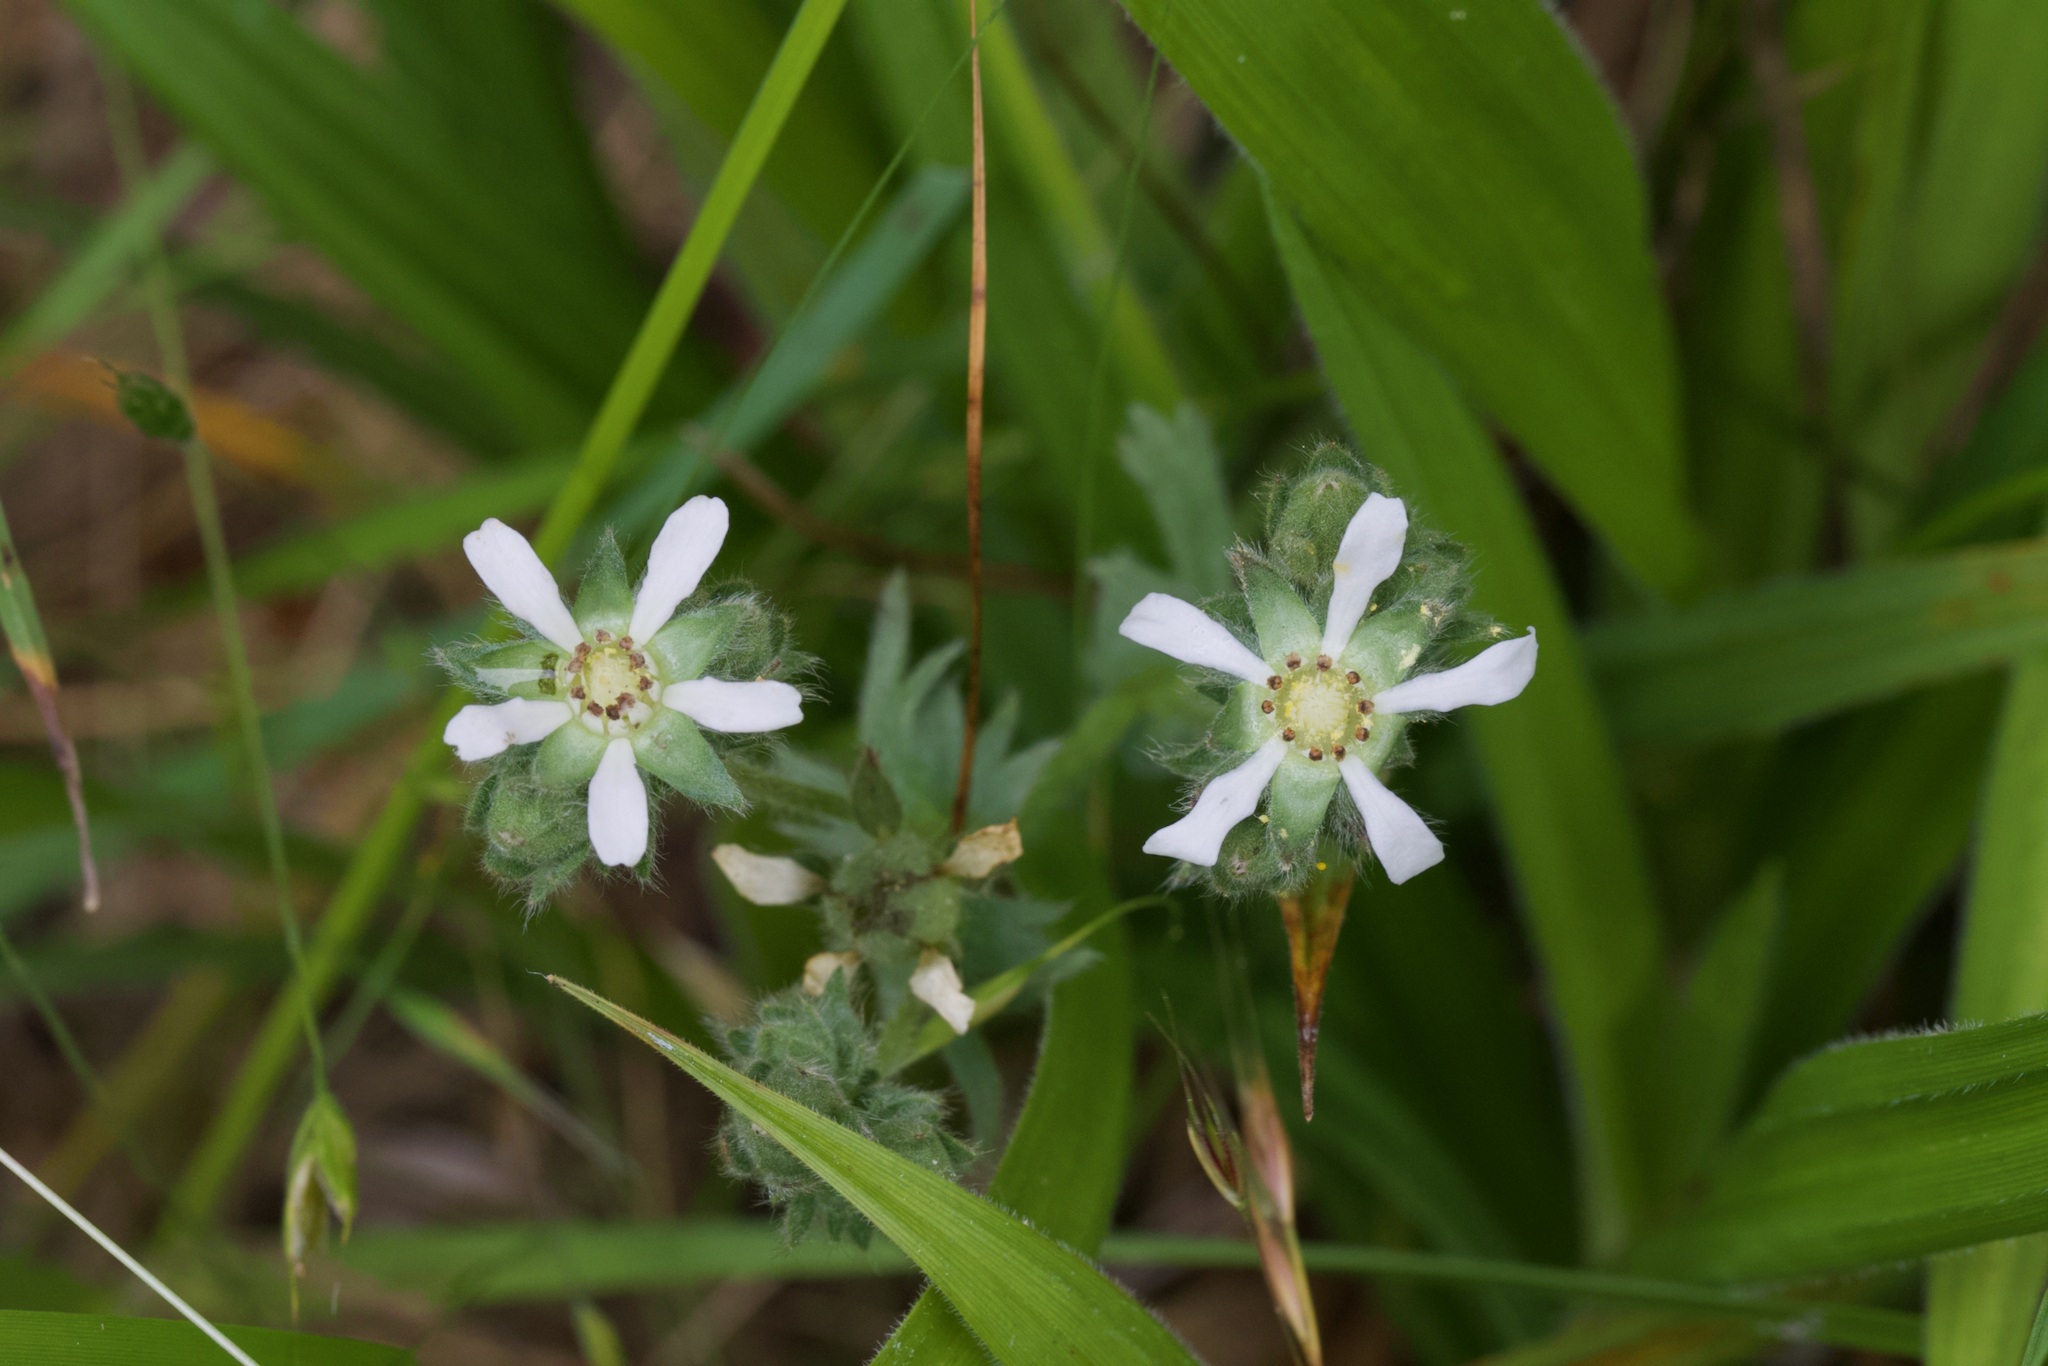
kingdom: Plantae
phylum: Tracheophyta
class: Magnoliopsida
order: Rosales
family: Rosaceae
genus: Potentilla
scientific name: Potentilla marinensis
